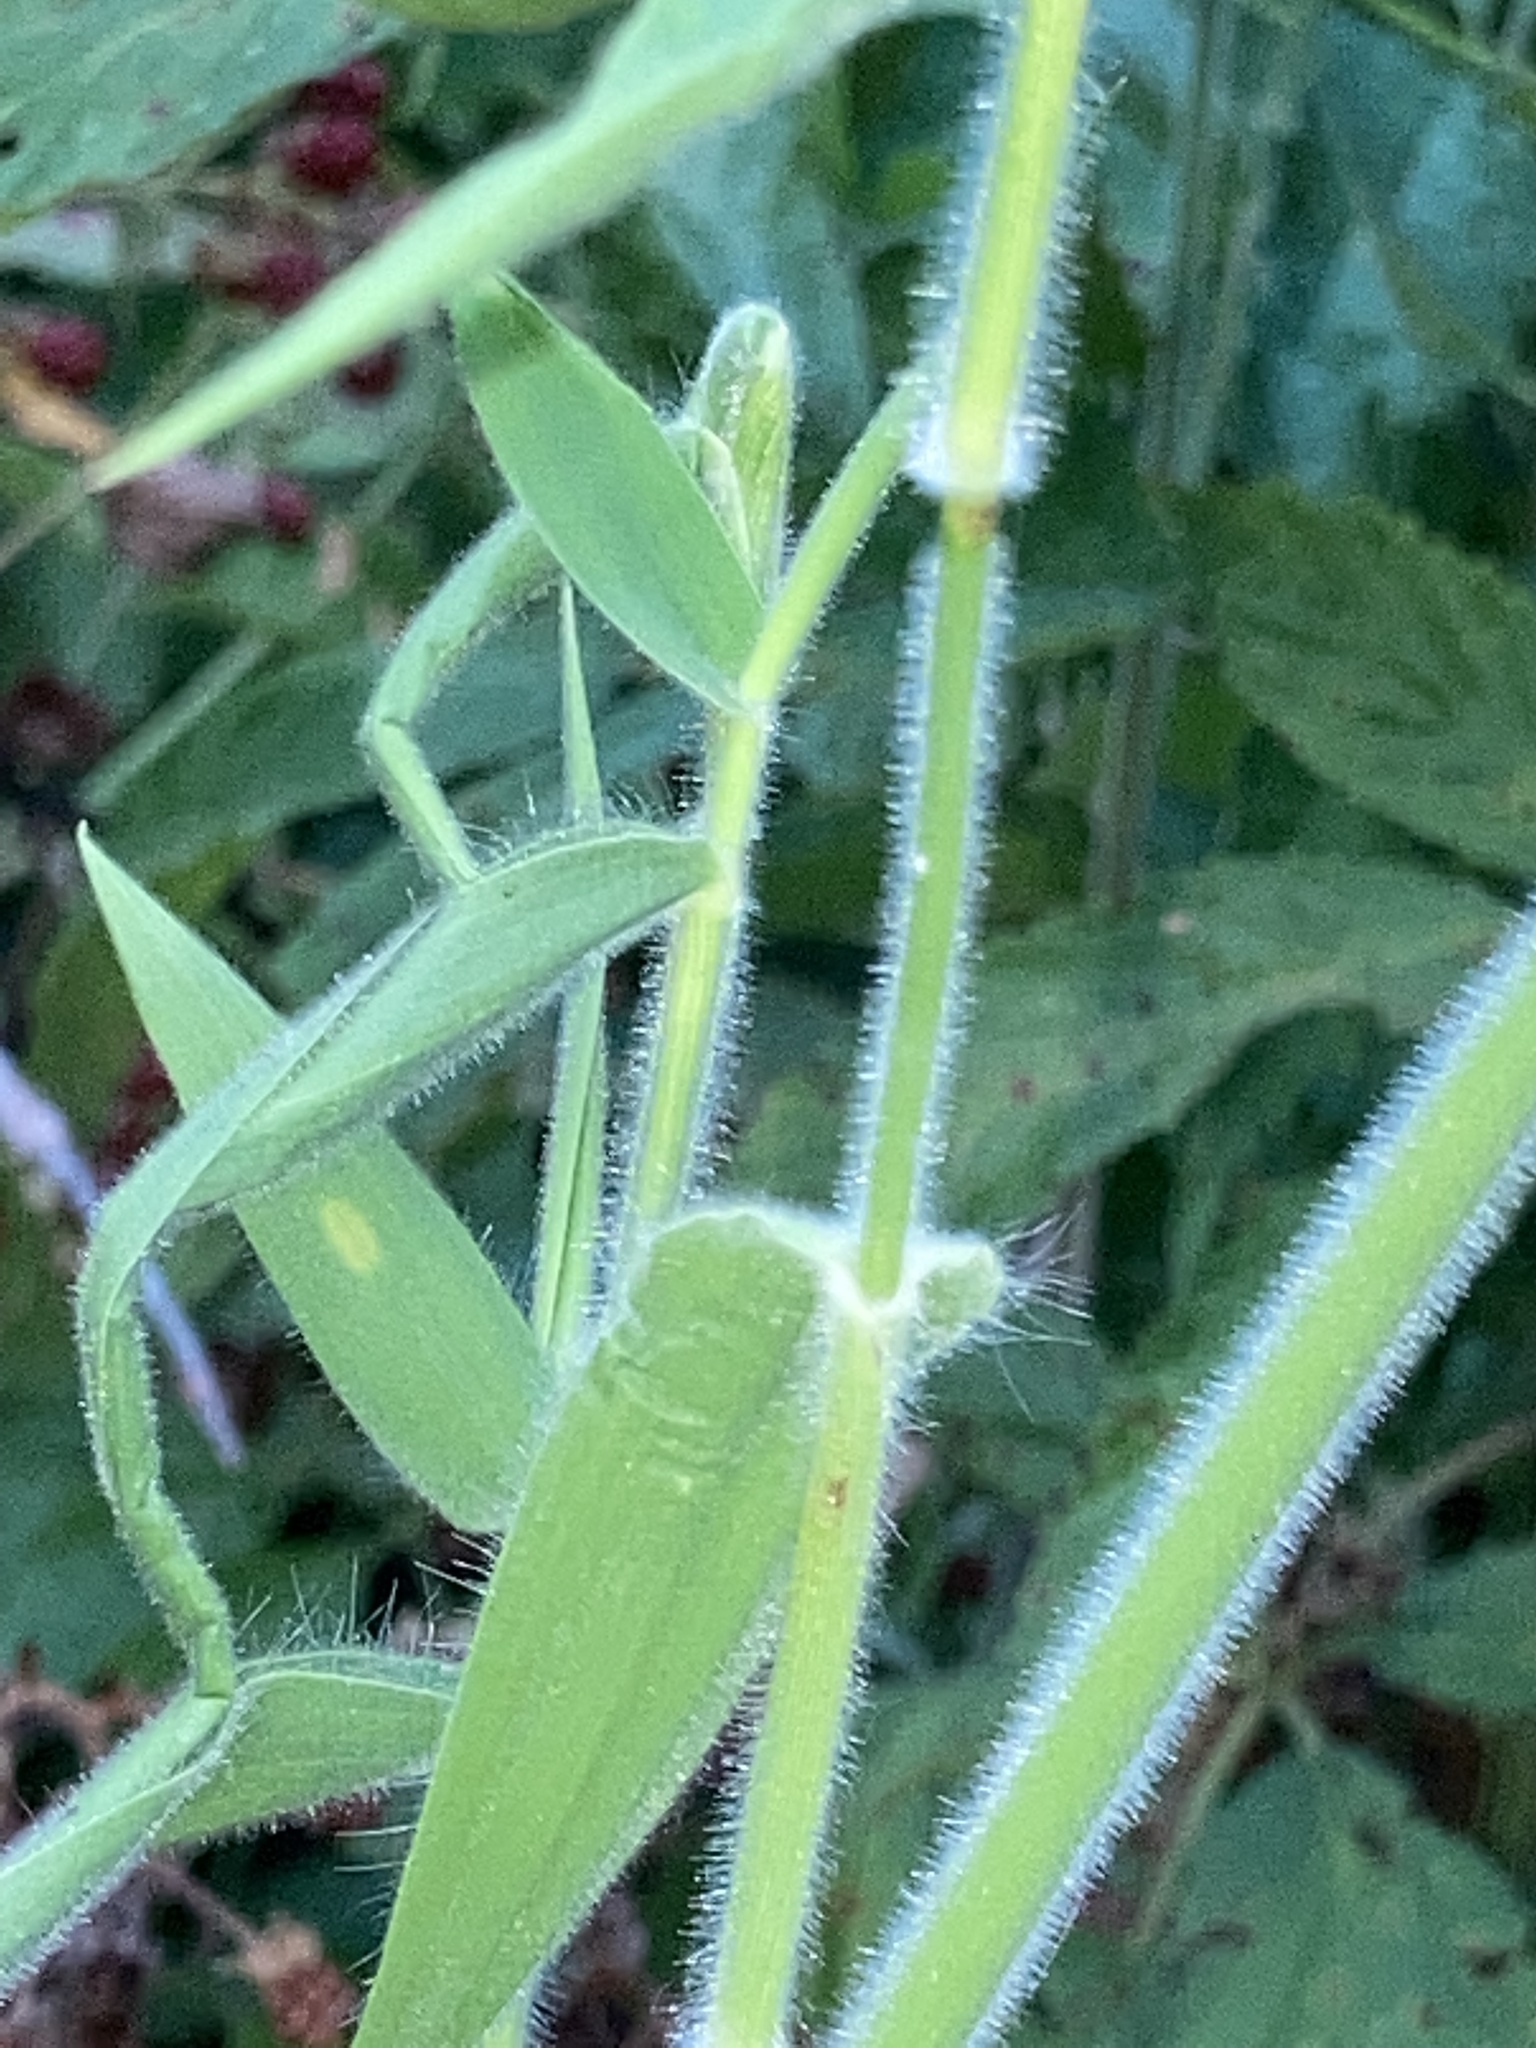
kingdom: Plantae
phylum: Tracheophyta
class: Liliopsida
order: Poales
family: Poaceae
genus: Dichanthelium
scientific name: Dichanthelium scoparium
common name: Velvety panic grass
